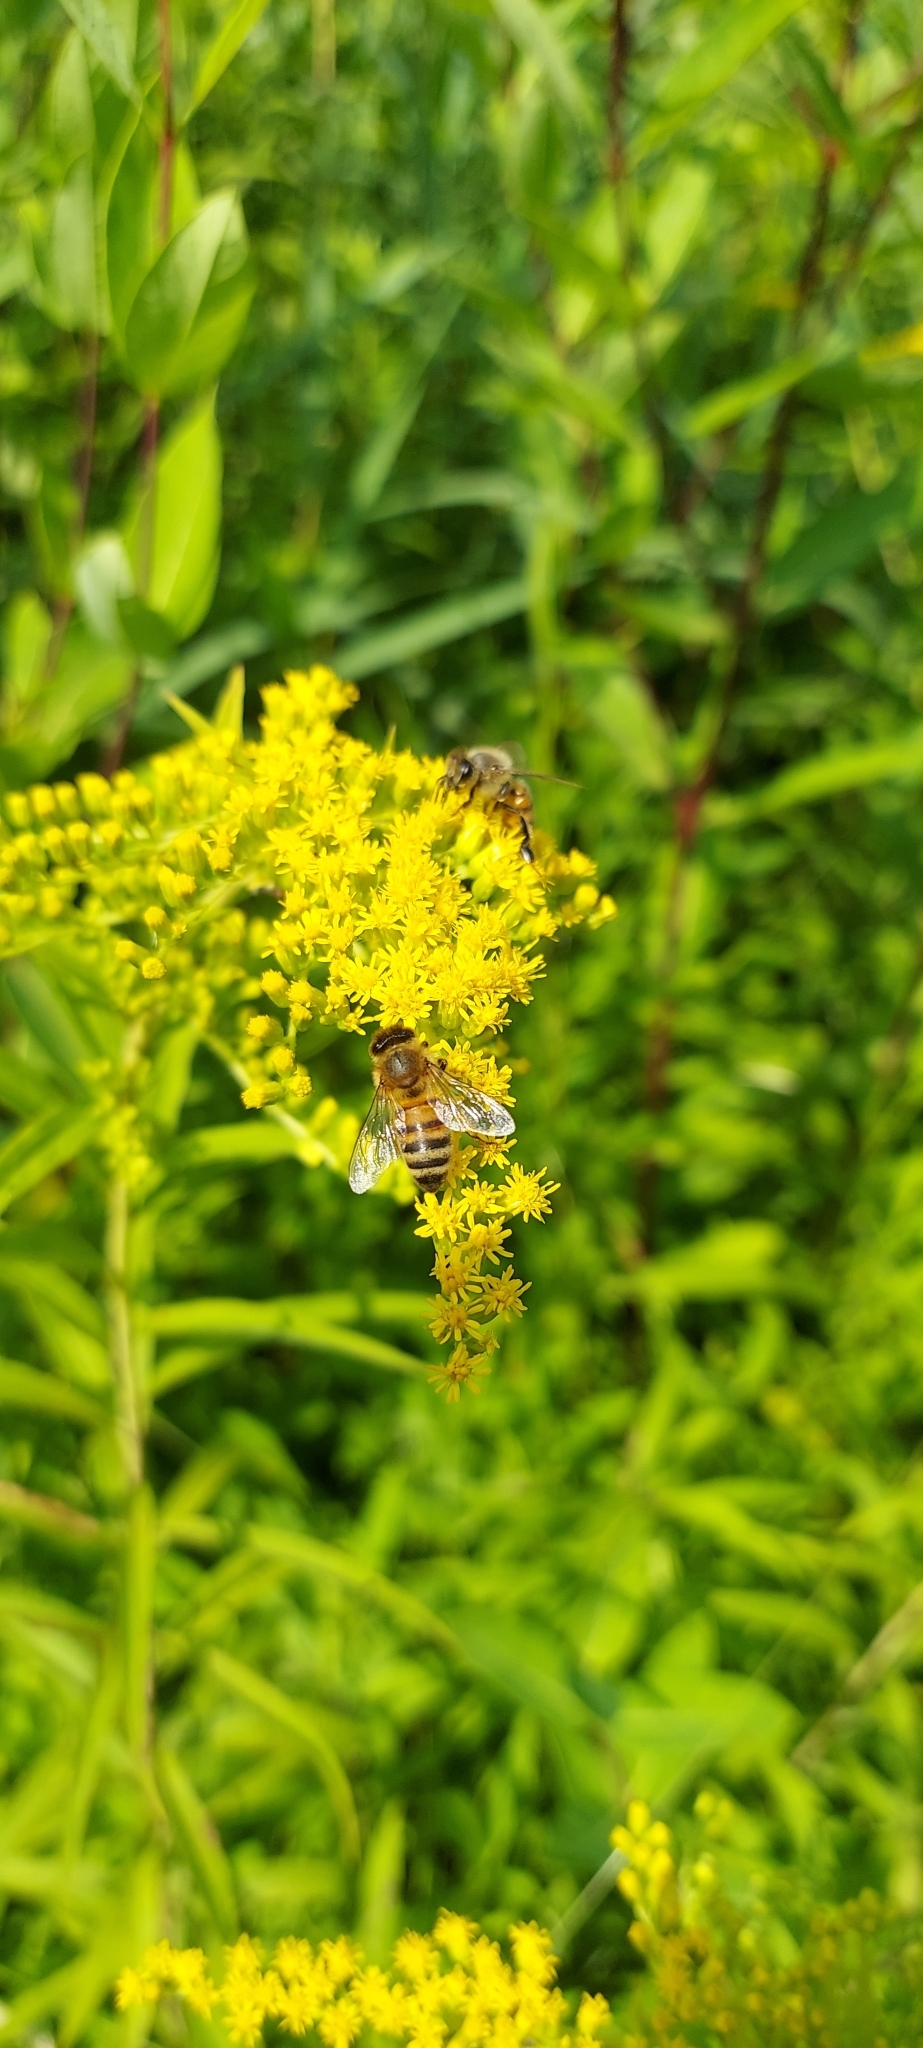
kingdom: Animalia
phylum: Arthropoda
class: Insecta
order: Hymenoptera
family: Apidae
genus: Apis
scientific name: Apis mellifera
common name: Honey bee
